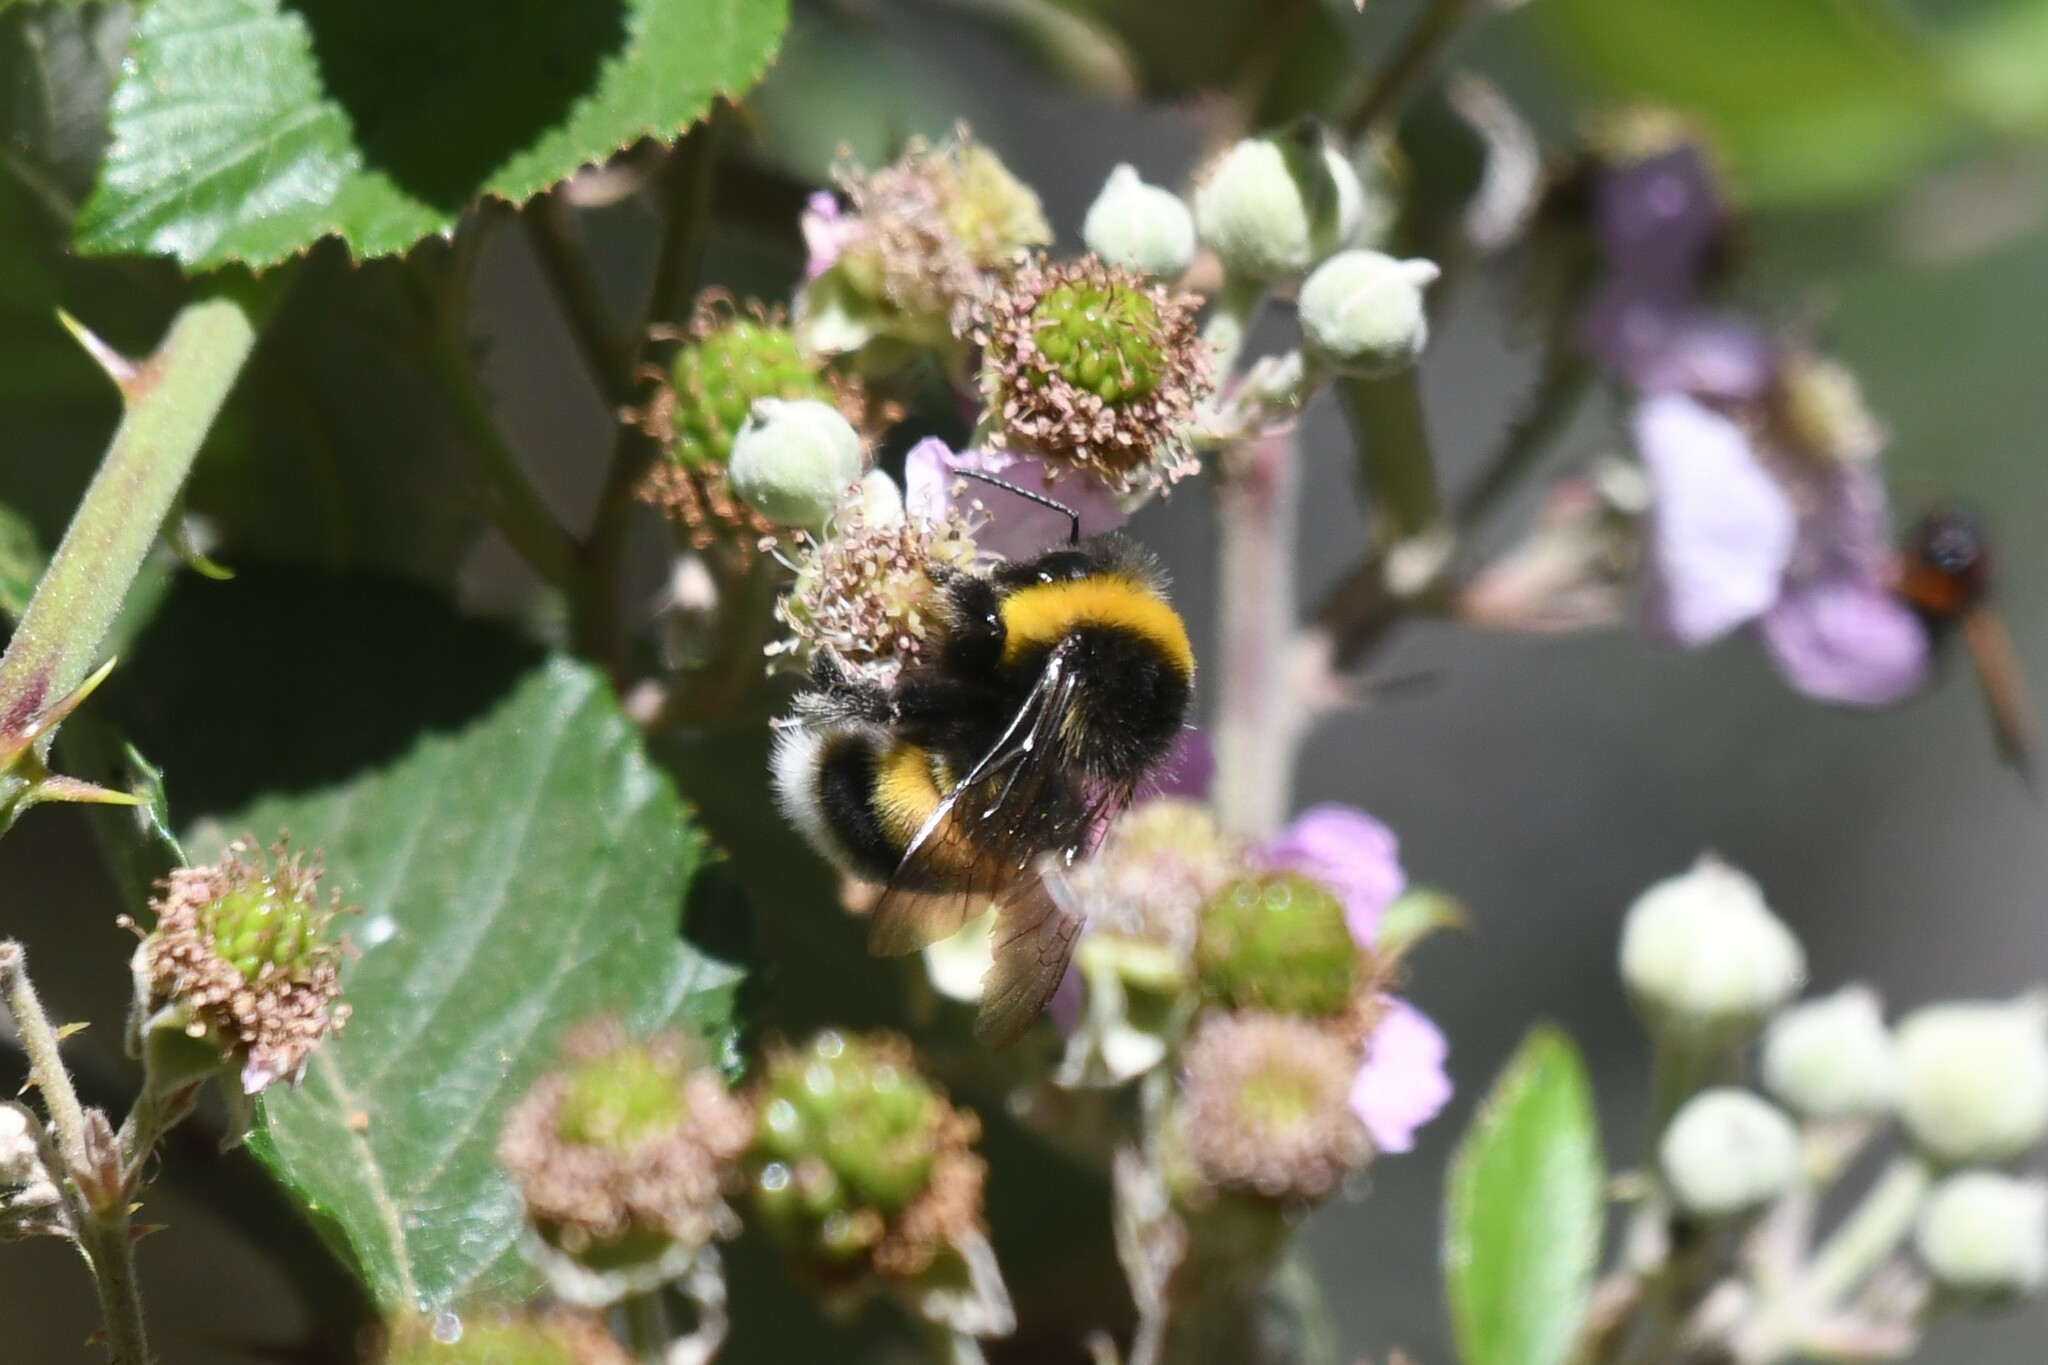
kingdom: Animalia
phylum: Arthropoda
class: Insecta
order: Hymenoptera
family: Apidae
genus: Bombus
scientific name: Bombus terrestris
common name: Buff-tailed bumblebee
